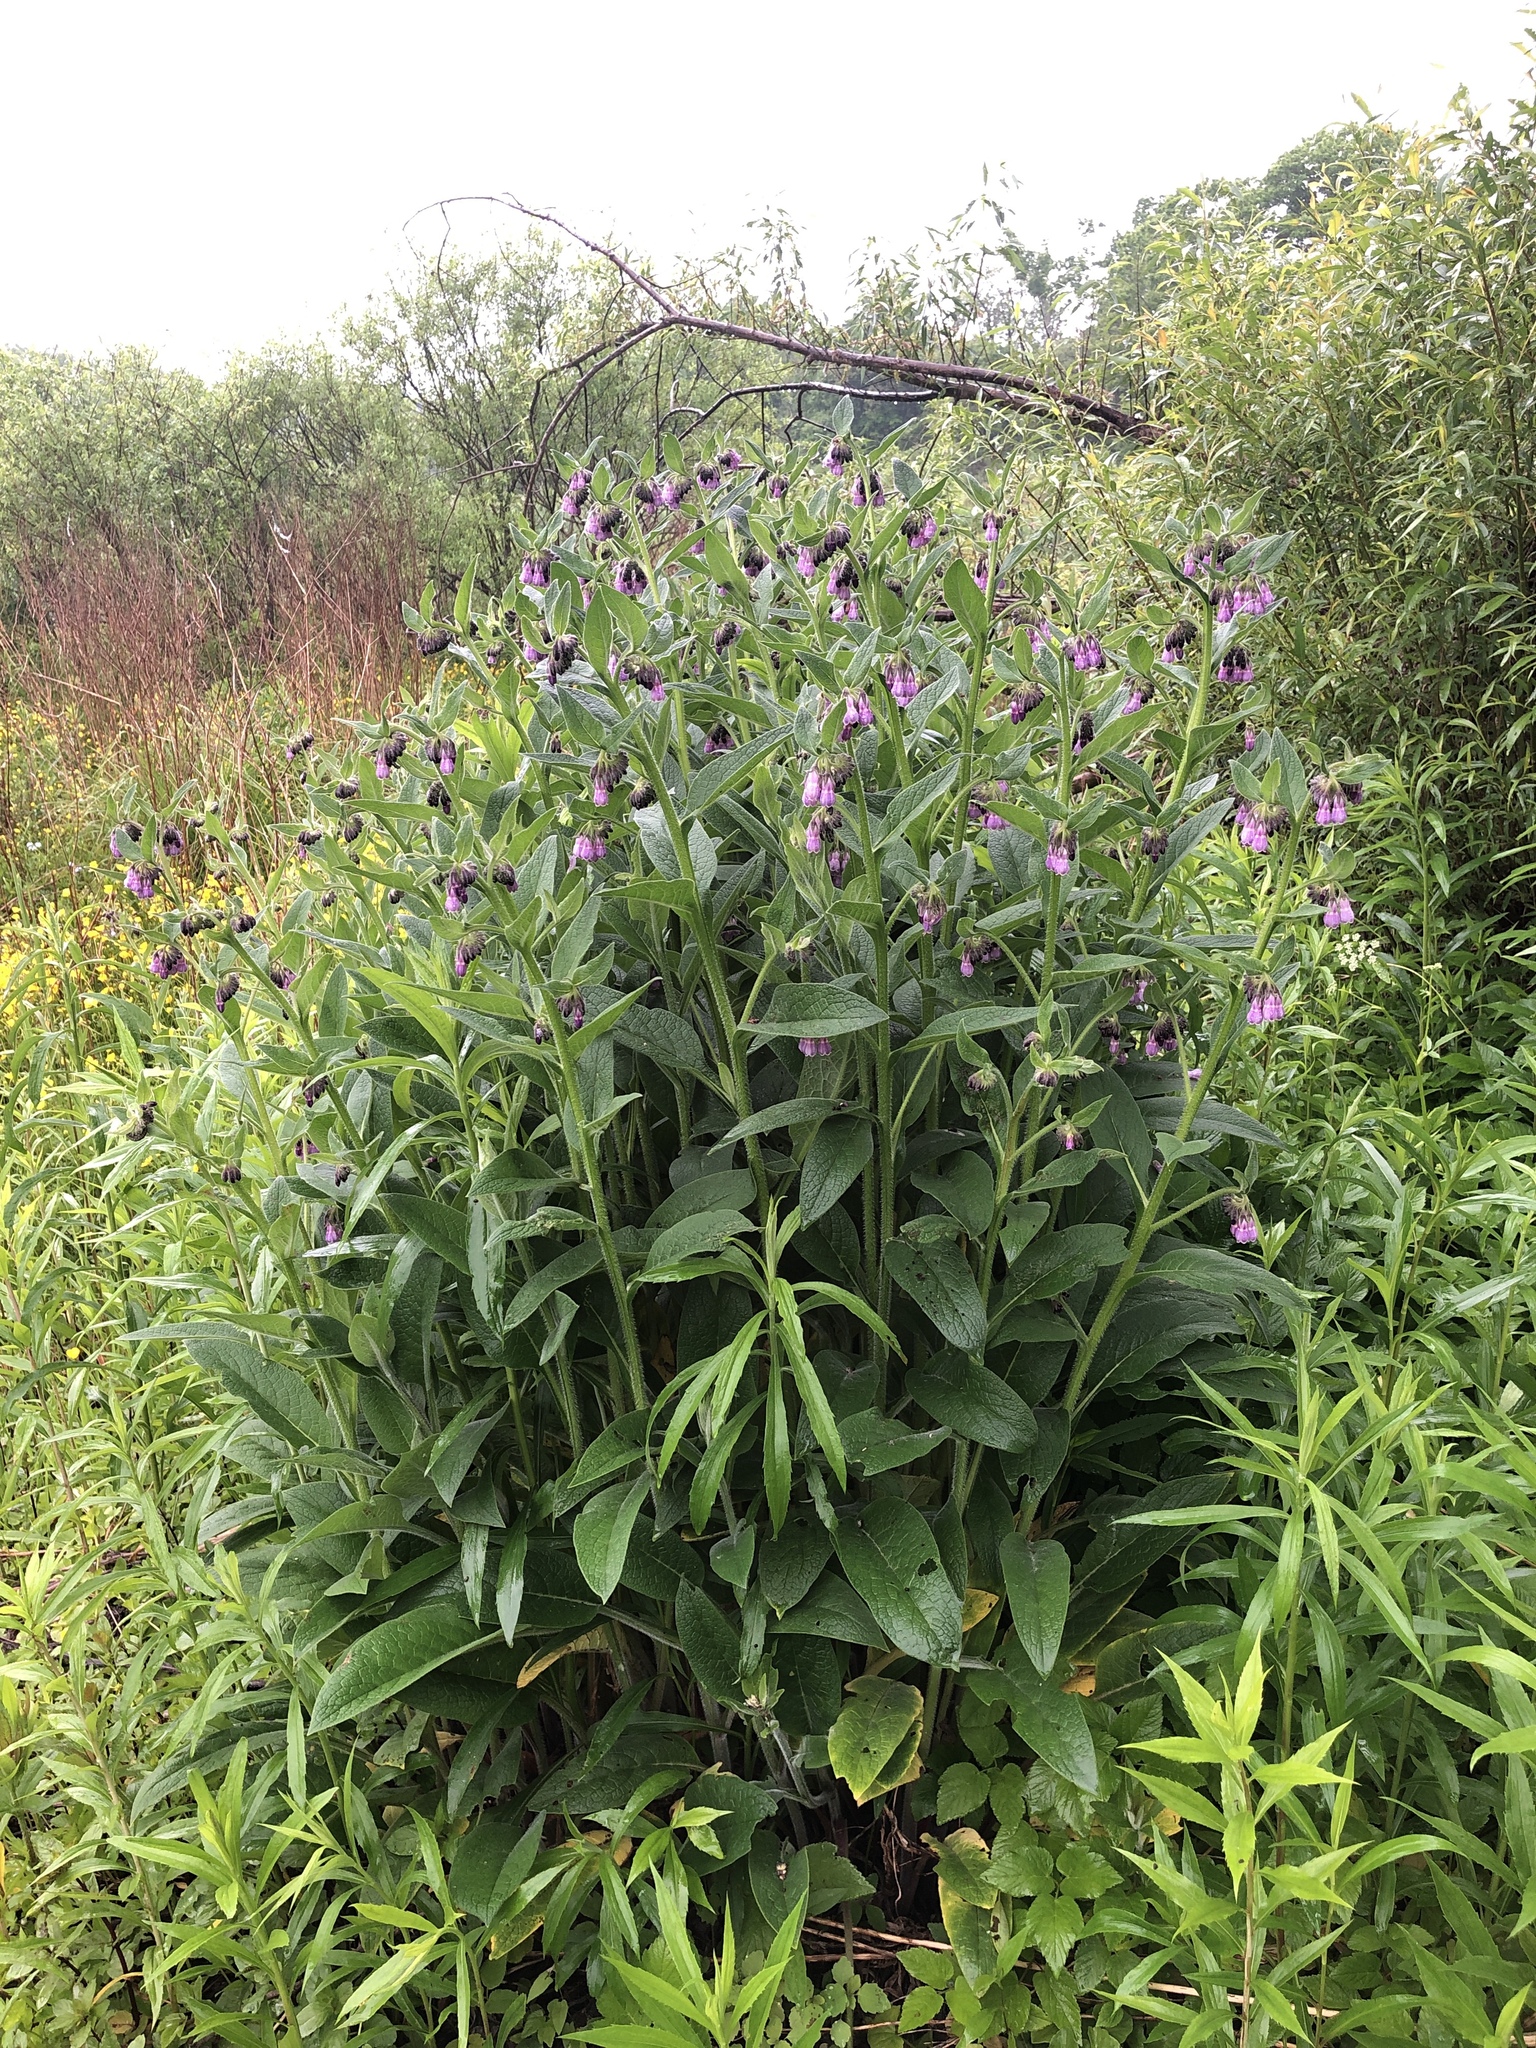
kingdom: Plantae
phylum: Tracheophyta
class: Magnoliopsida
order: Boraginales
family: Boraginaceae
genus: Symphytum
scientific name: Symphytum officinale
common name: Common comfrey
